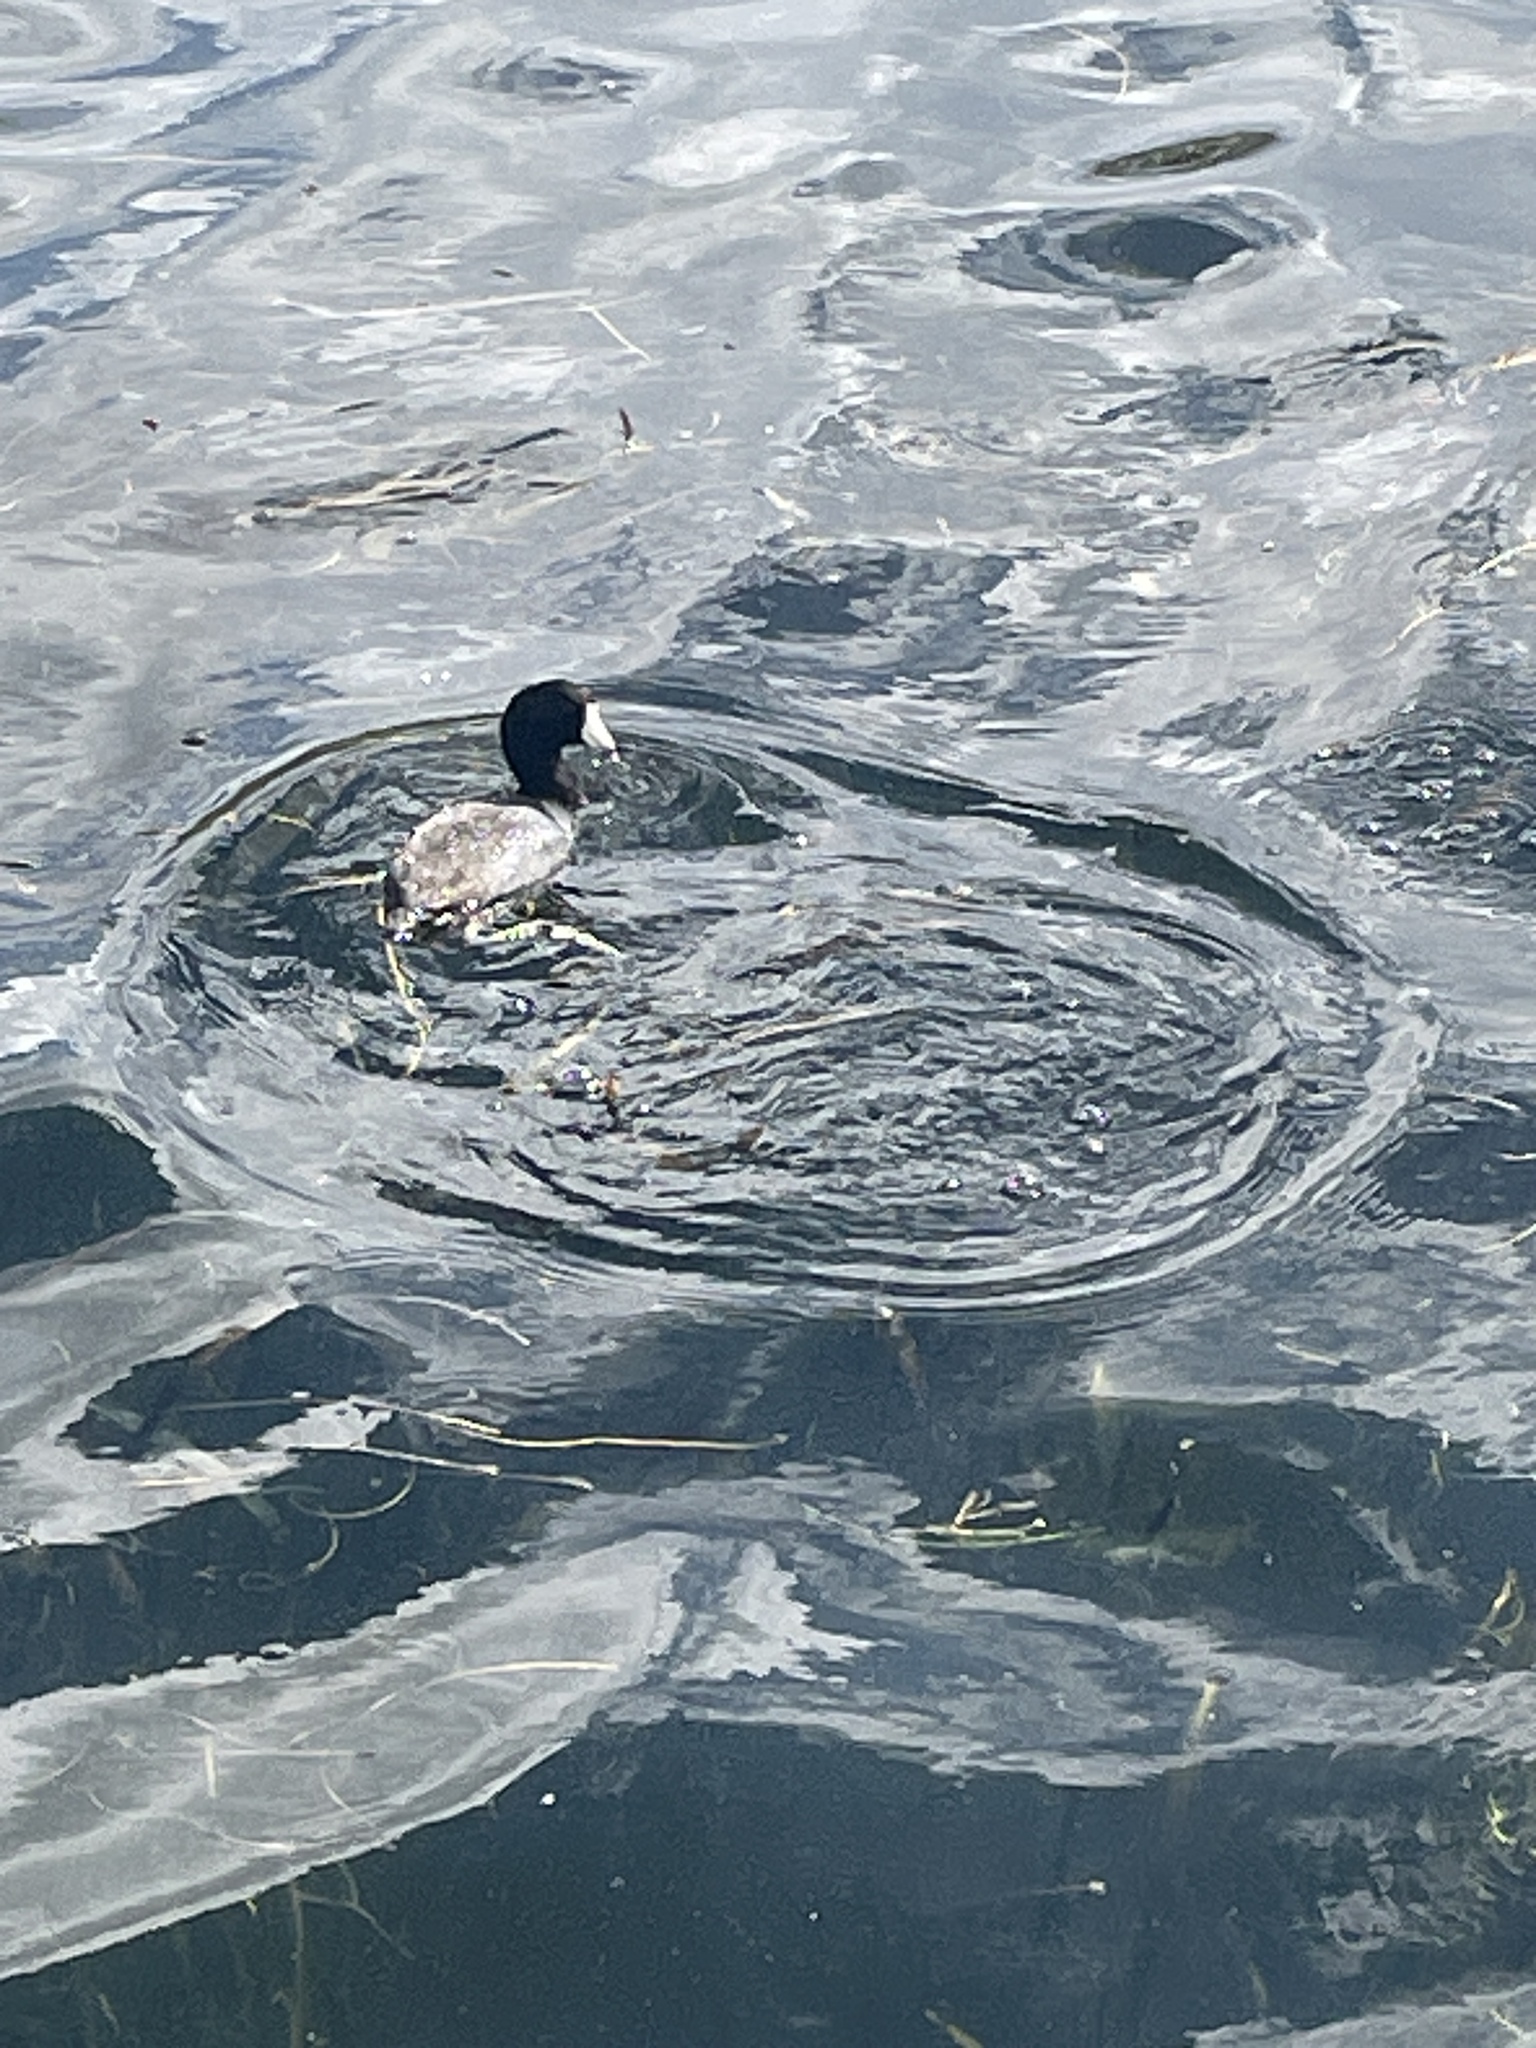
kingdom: Animalia
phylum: Chordata
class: Aves
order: Gruiformes
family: Rallidae
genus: Fulica
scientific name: Fulica americana
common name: American coot
